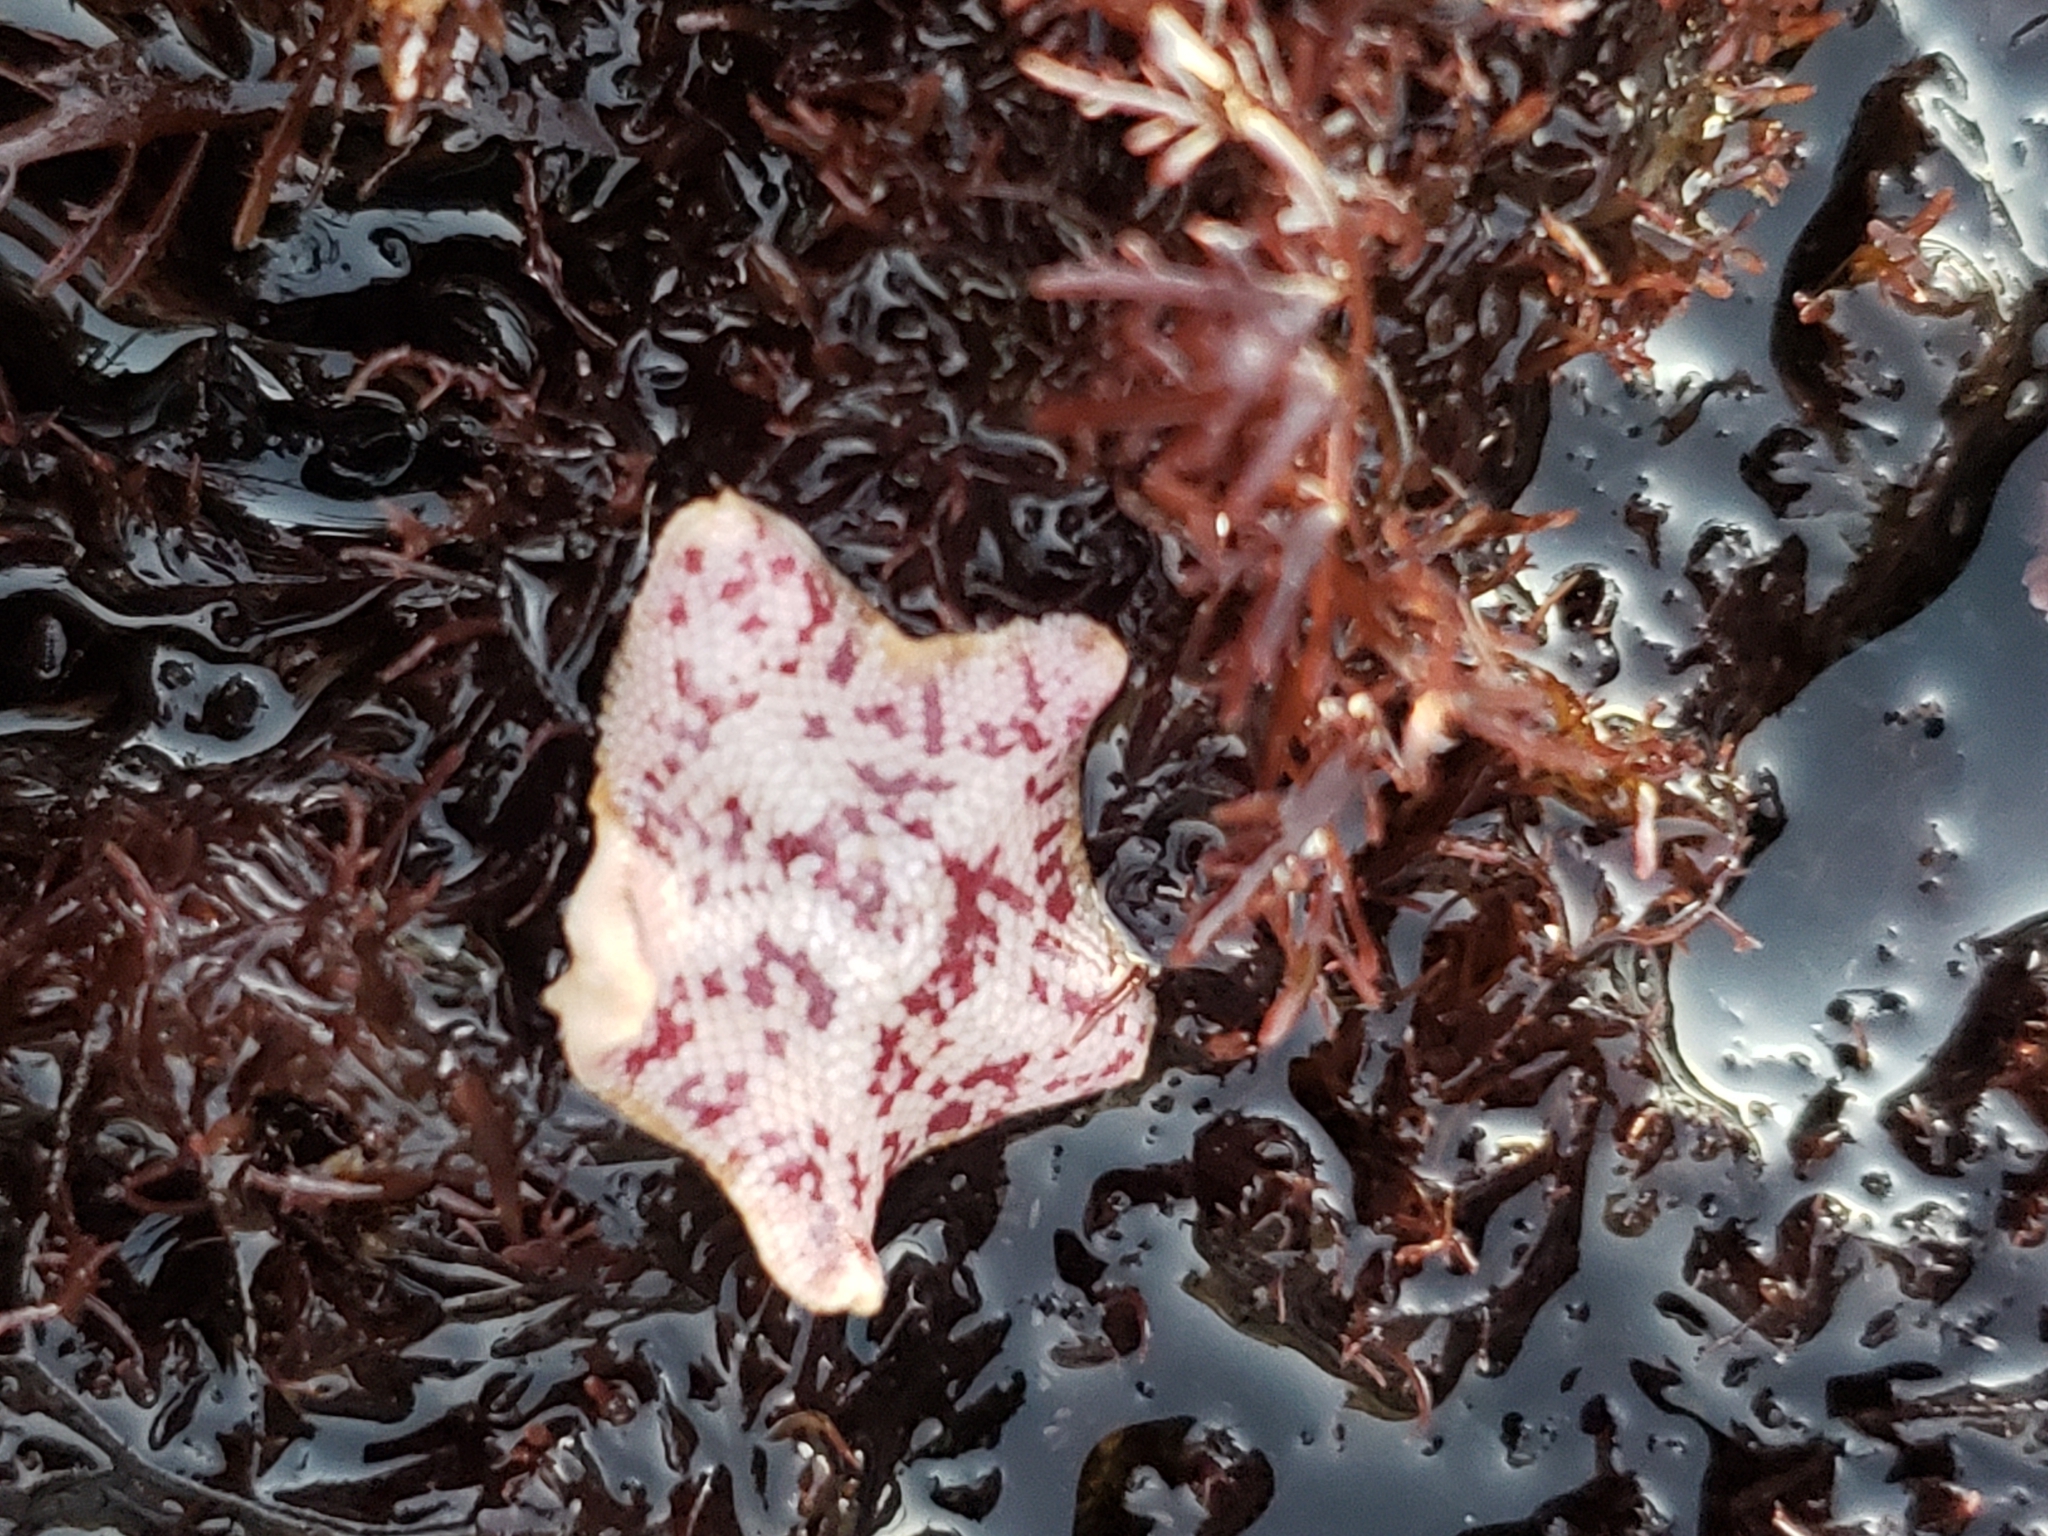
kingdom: Animalia
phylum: Echinodermata
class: Asteroidea
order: Valvatida
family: Asterinidae
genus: Patiria
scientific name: Patiria miniata
